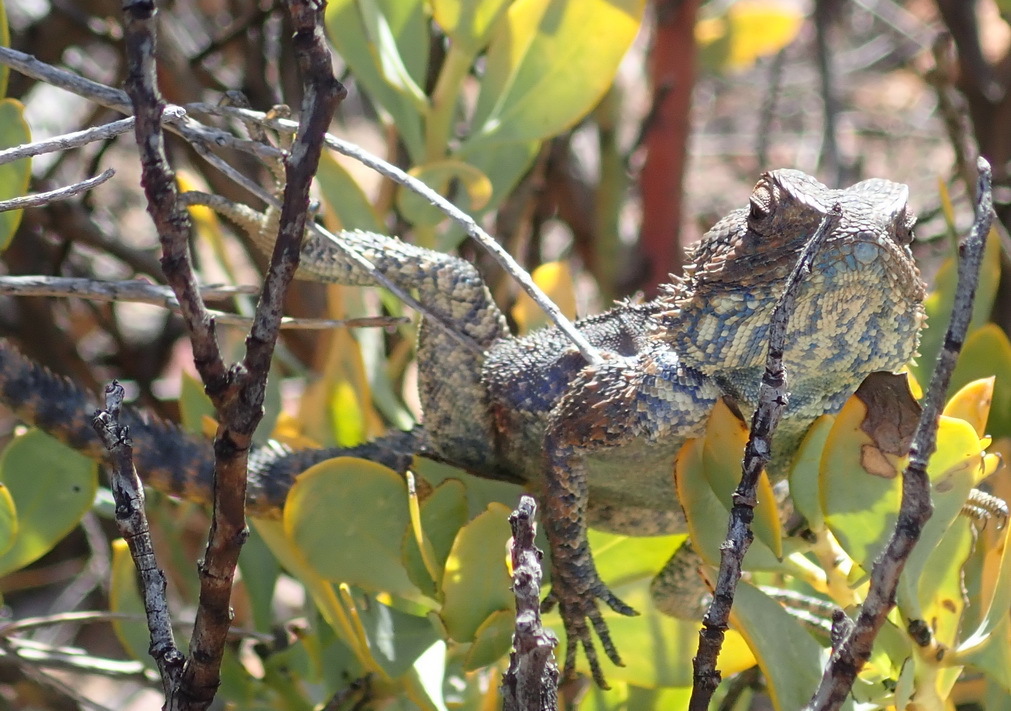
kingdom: Animalia
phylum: Chordata
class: Squamata
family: Agamidae
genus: Agama
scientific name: Agama atra
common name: Southern african rock agama
